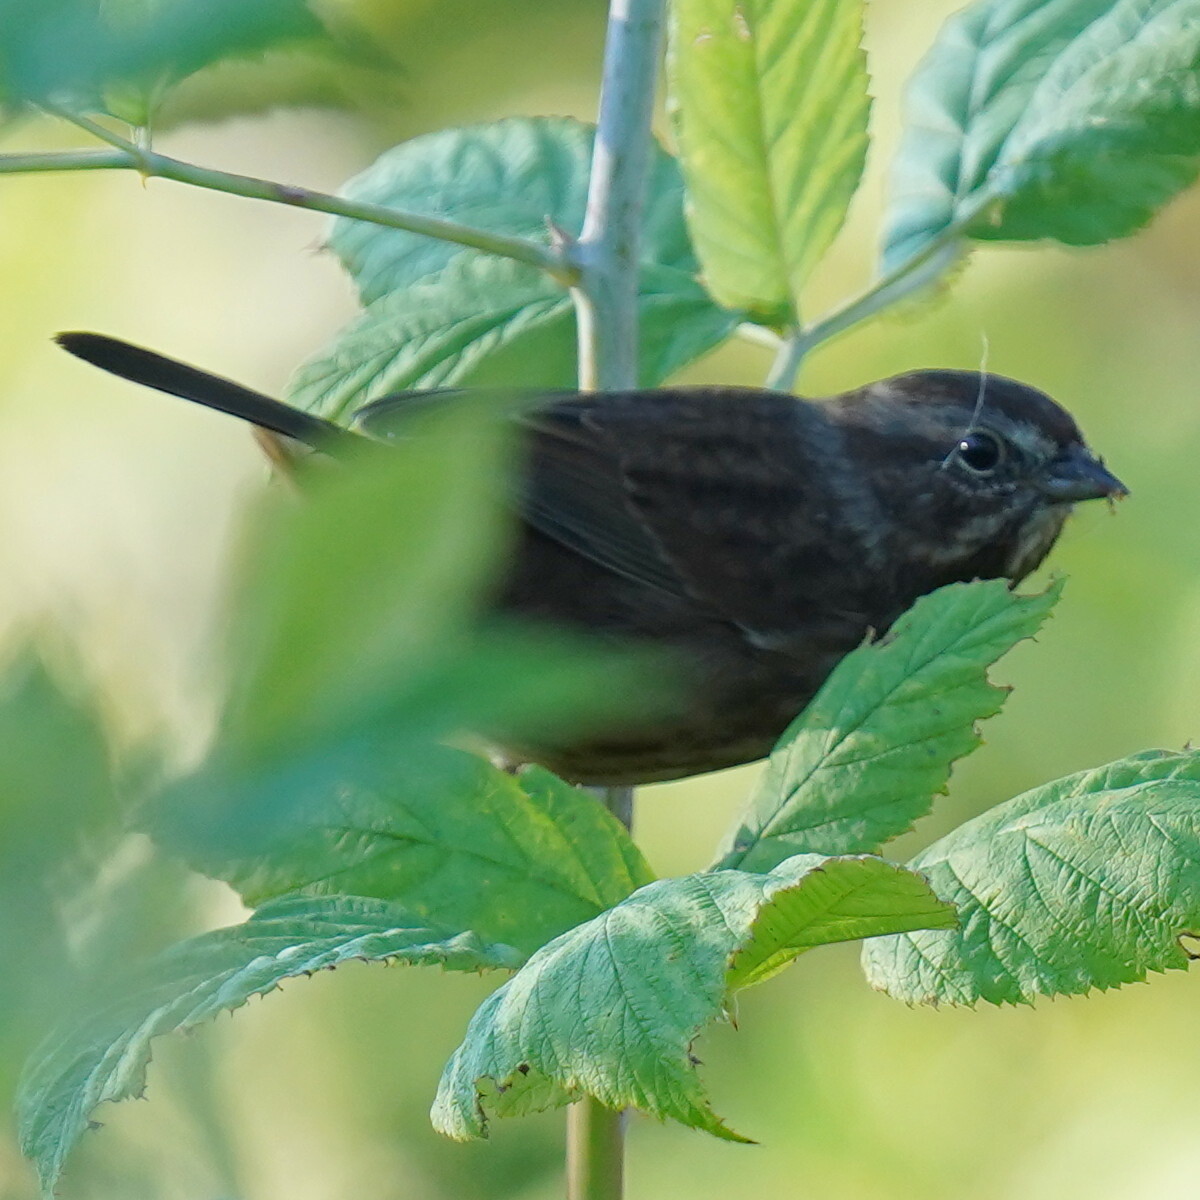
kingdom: Animalia
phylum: Chordata
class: Aves
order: Passeriformes
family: Passerellidae
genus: Melospiza
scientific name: Melospiza melodia
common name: Song sparrow
